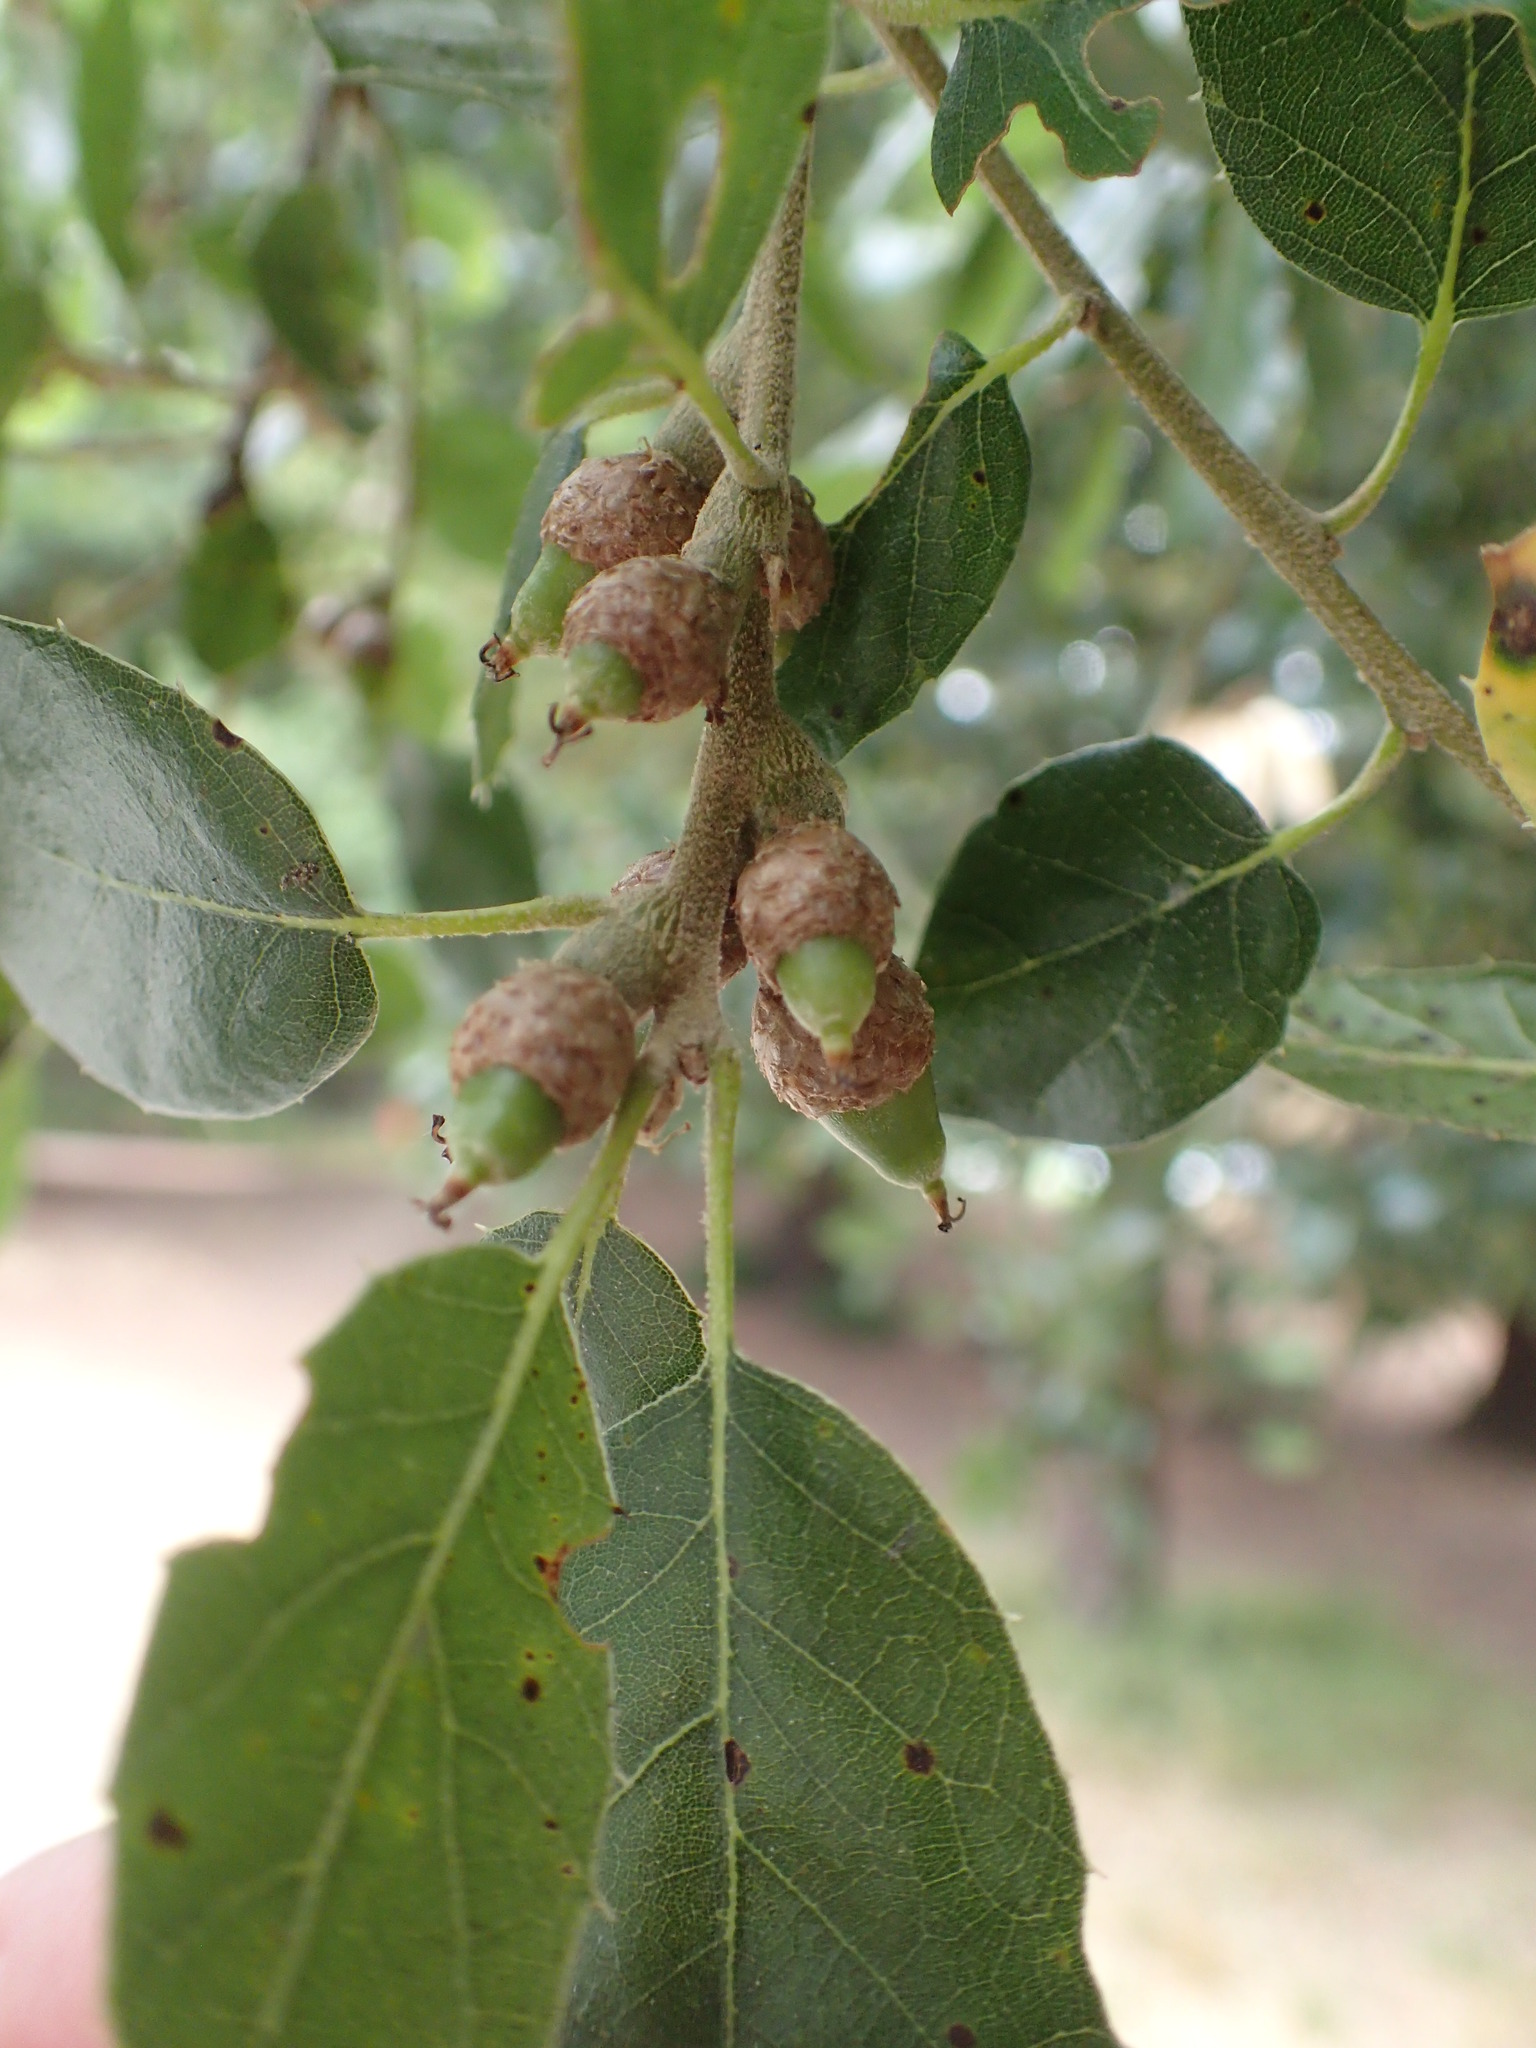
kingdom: Plantae
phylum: Tracheophyta
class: Magnoliopsida
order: Fagales
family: Fagaceae
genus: Quercus
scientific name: Quercus agrifolia
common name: California live oak
